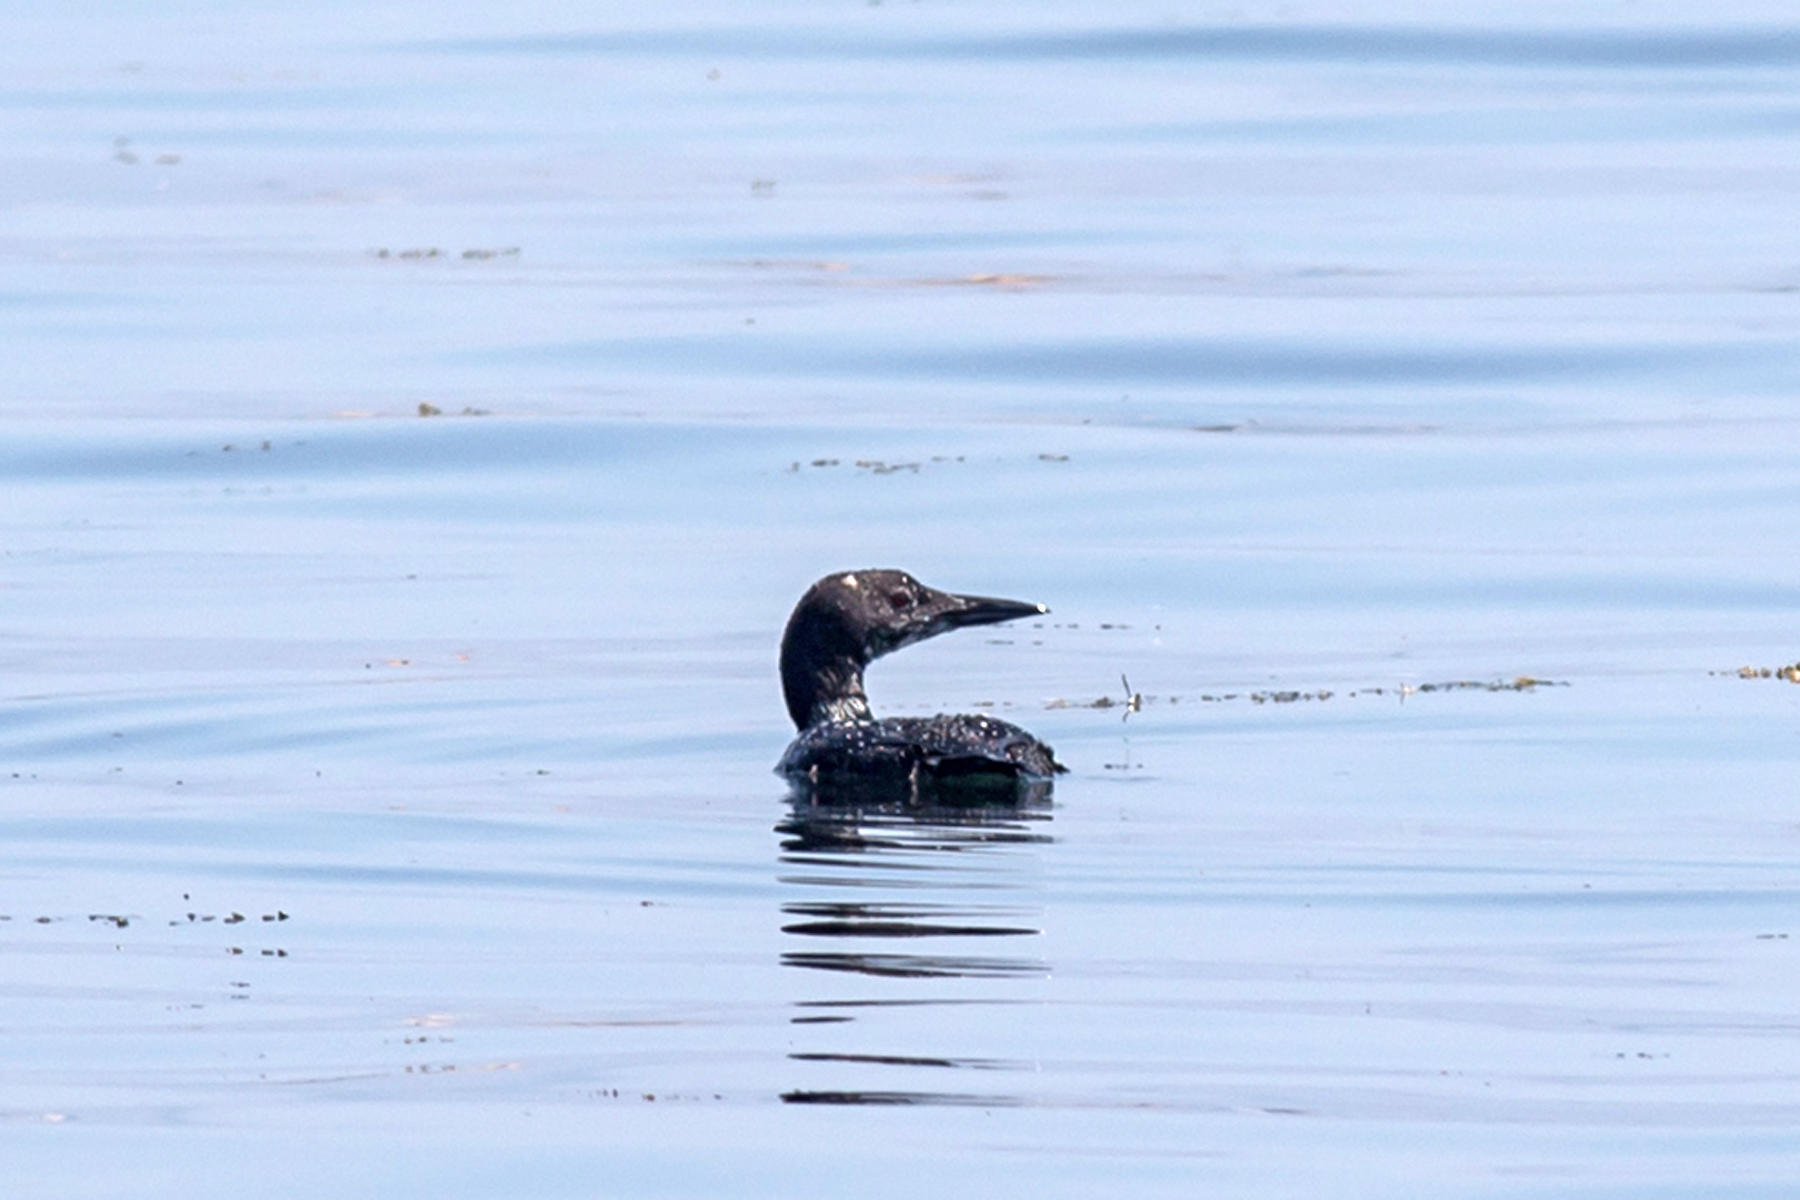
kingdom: Animalia
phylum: Chordata
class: Aves
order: Gaviiformes
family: Gaviidae
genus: Gavia
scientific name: Gavia immer
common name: Common loon
